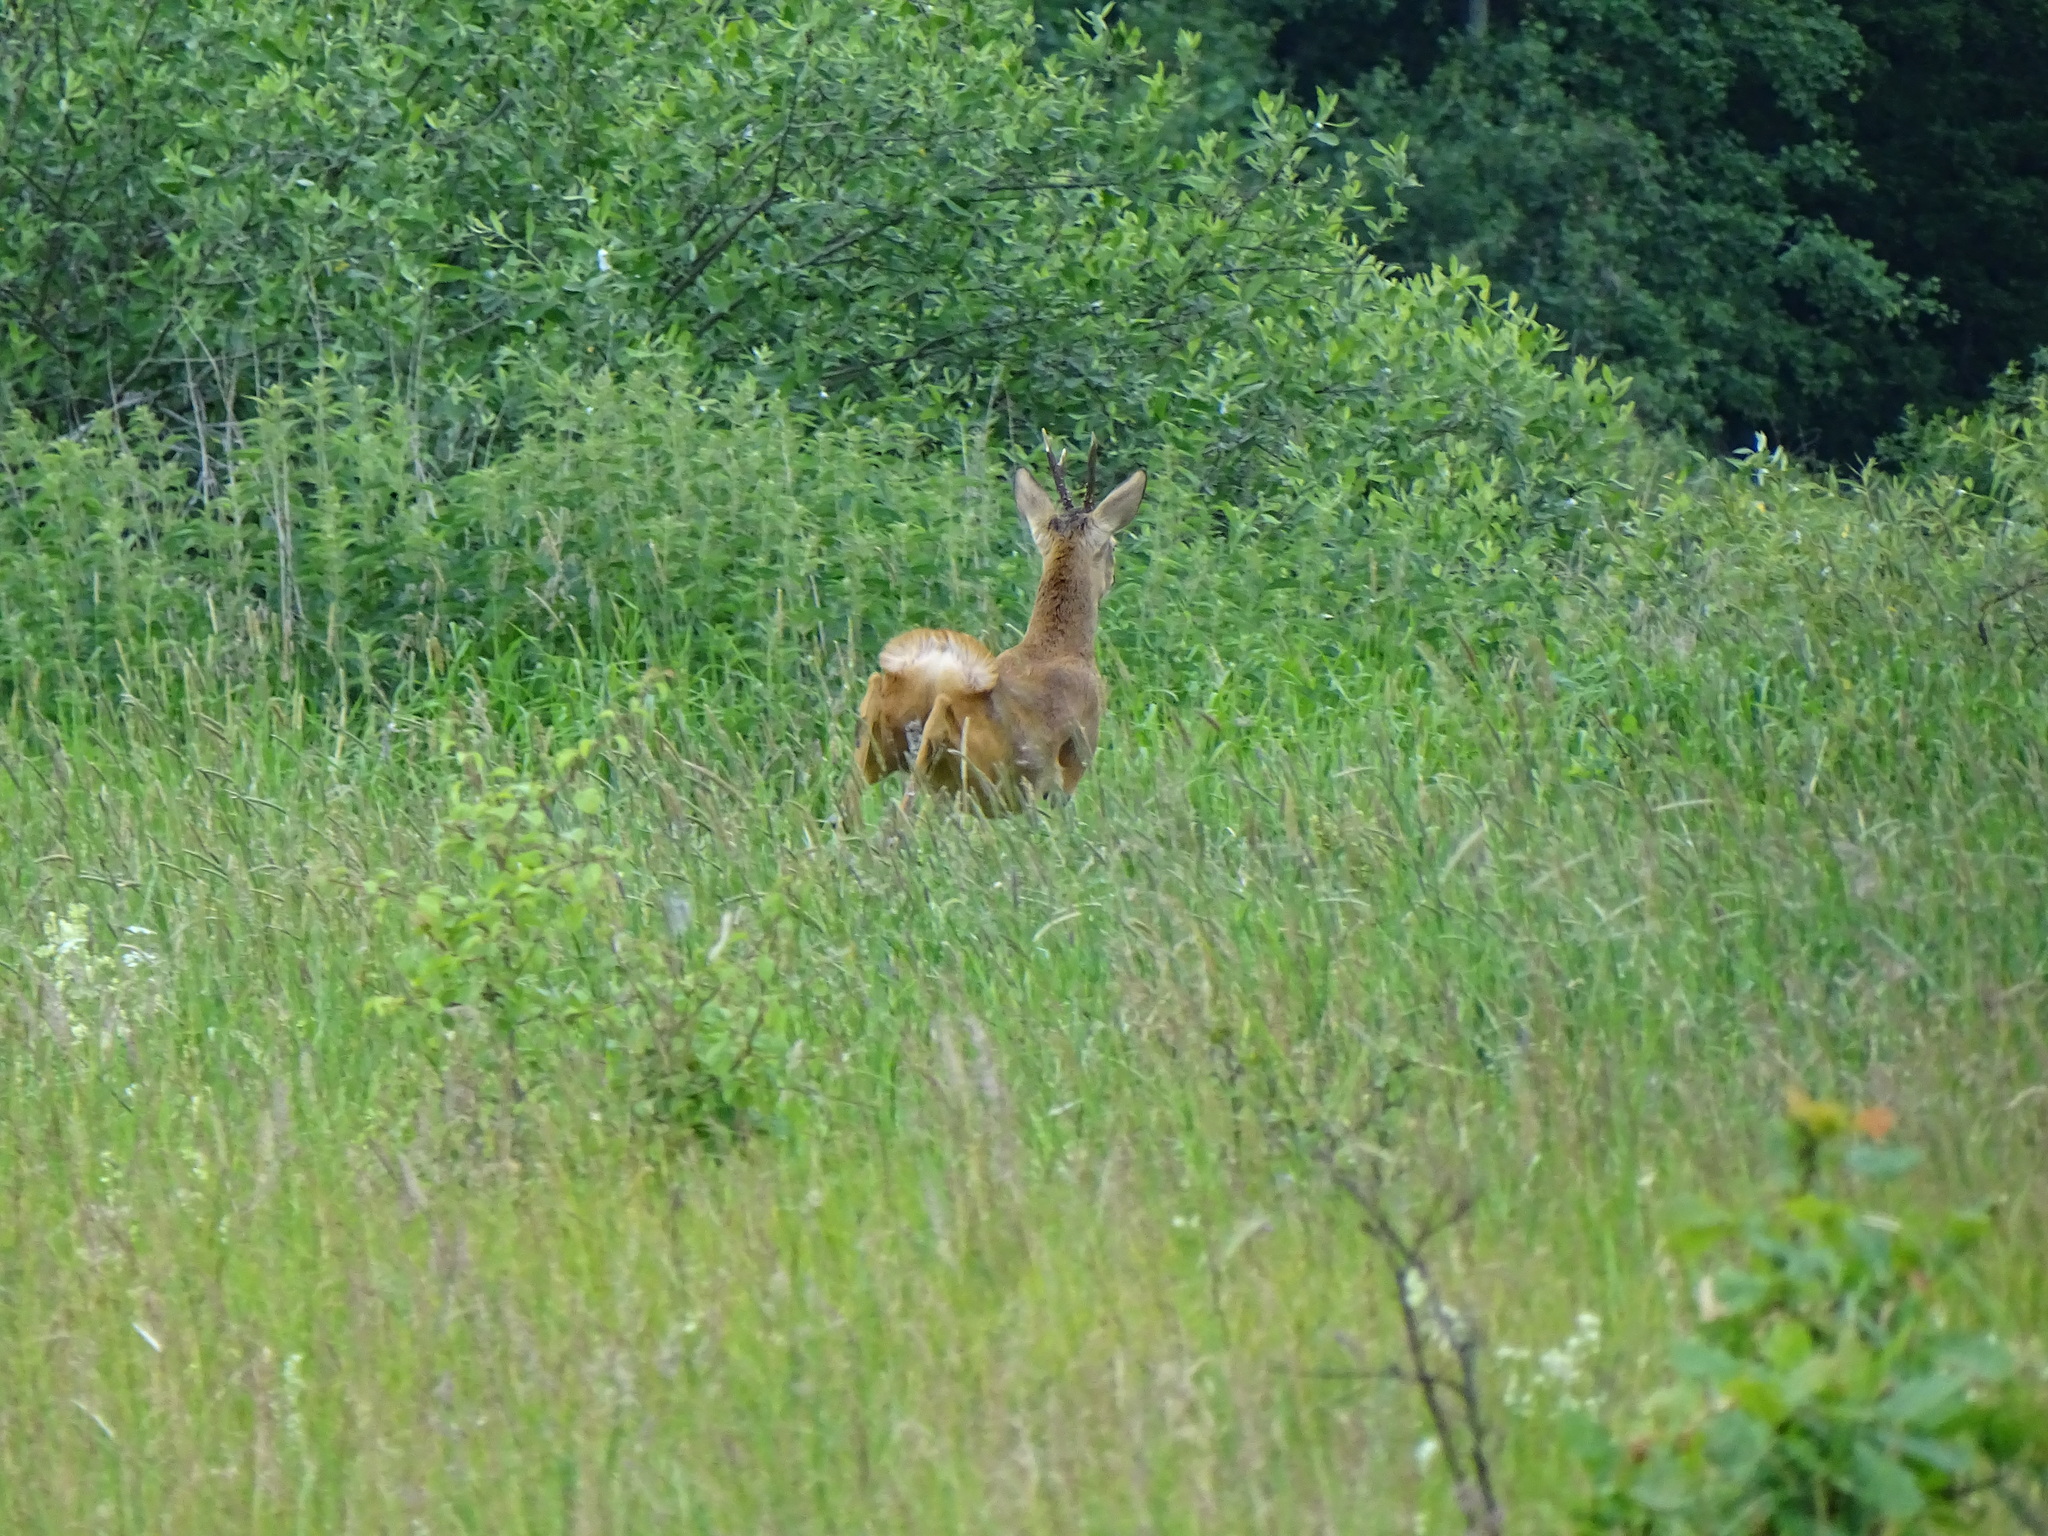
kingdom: Animalia
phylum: Chordata
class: Mammalia
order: Artiodactyla
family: Cervidae
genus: Capreolus
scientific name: Capreolus capreolus
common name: Western roe deer
